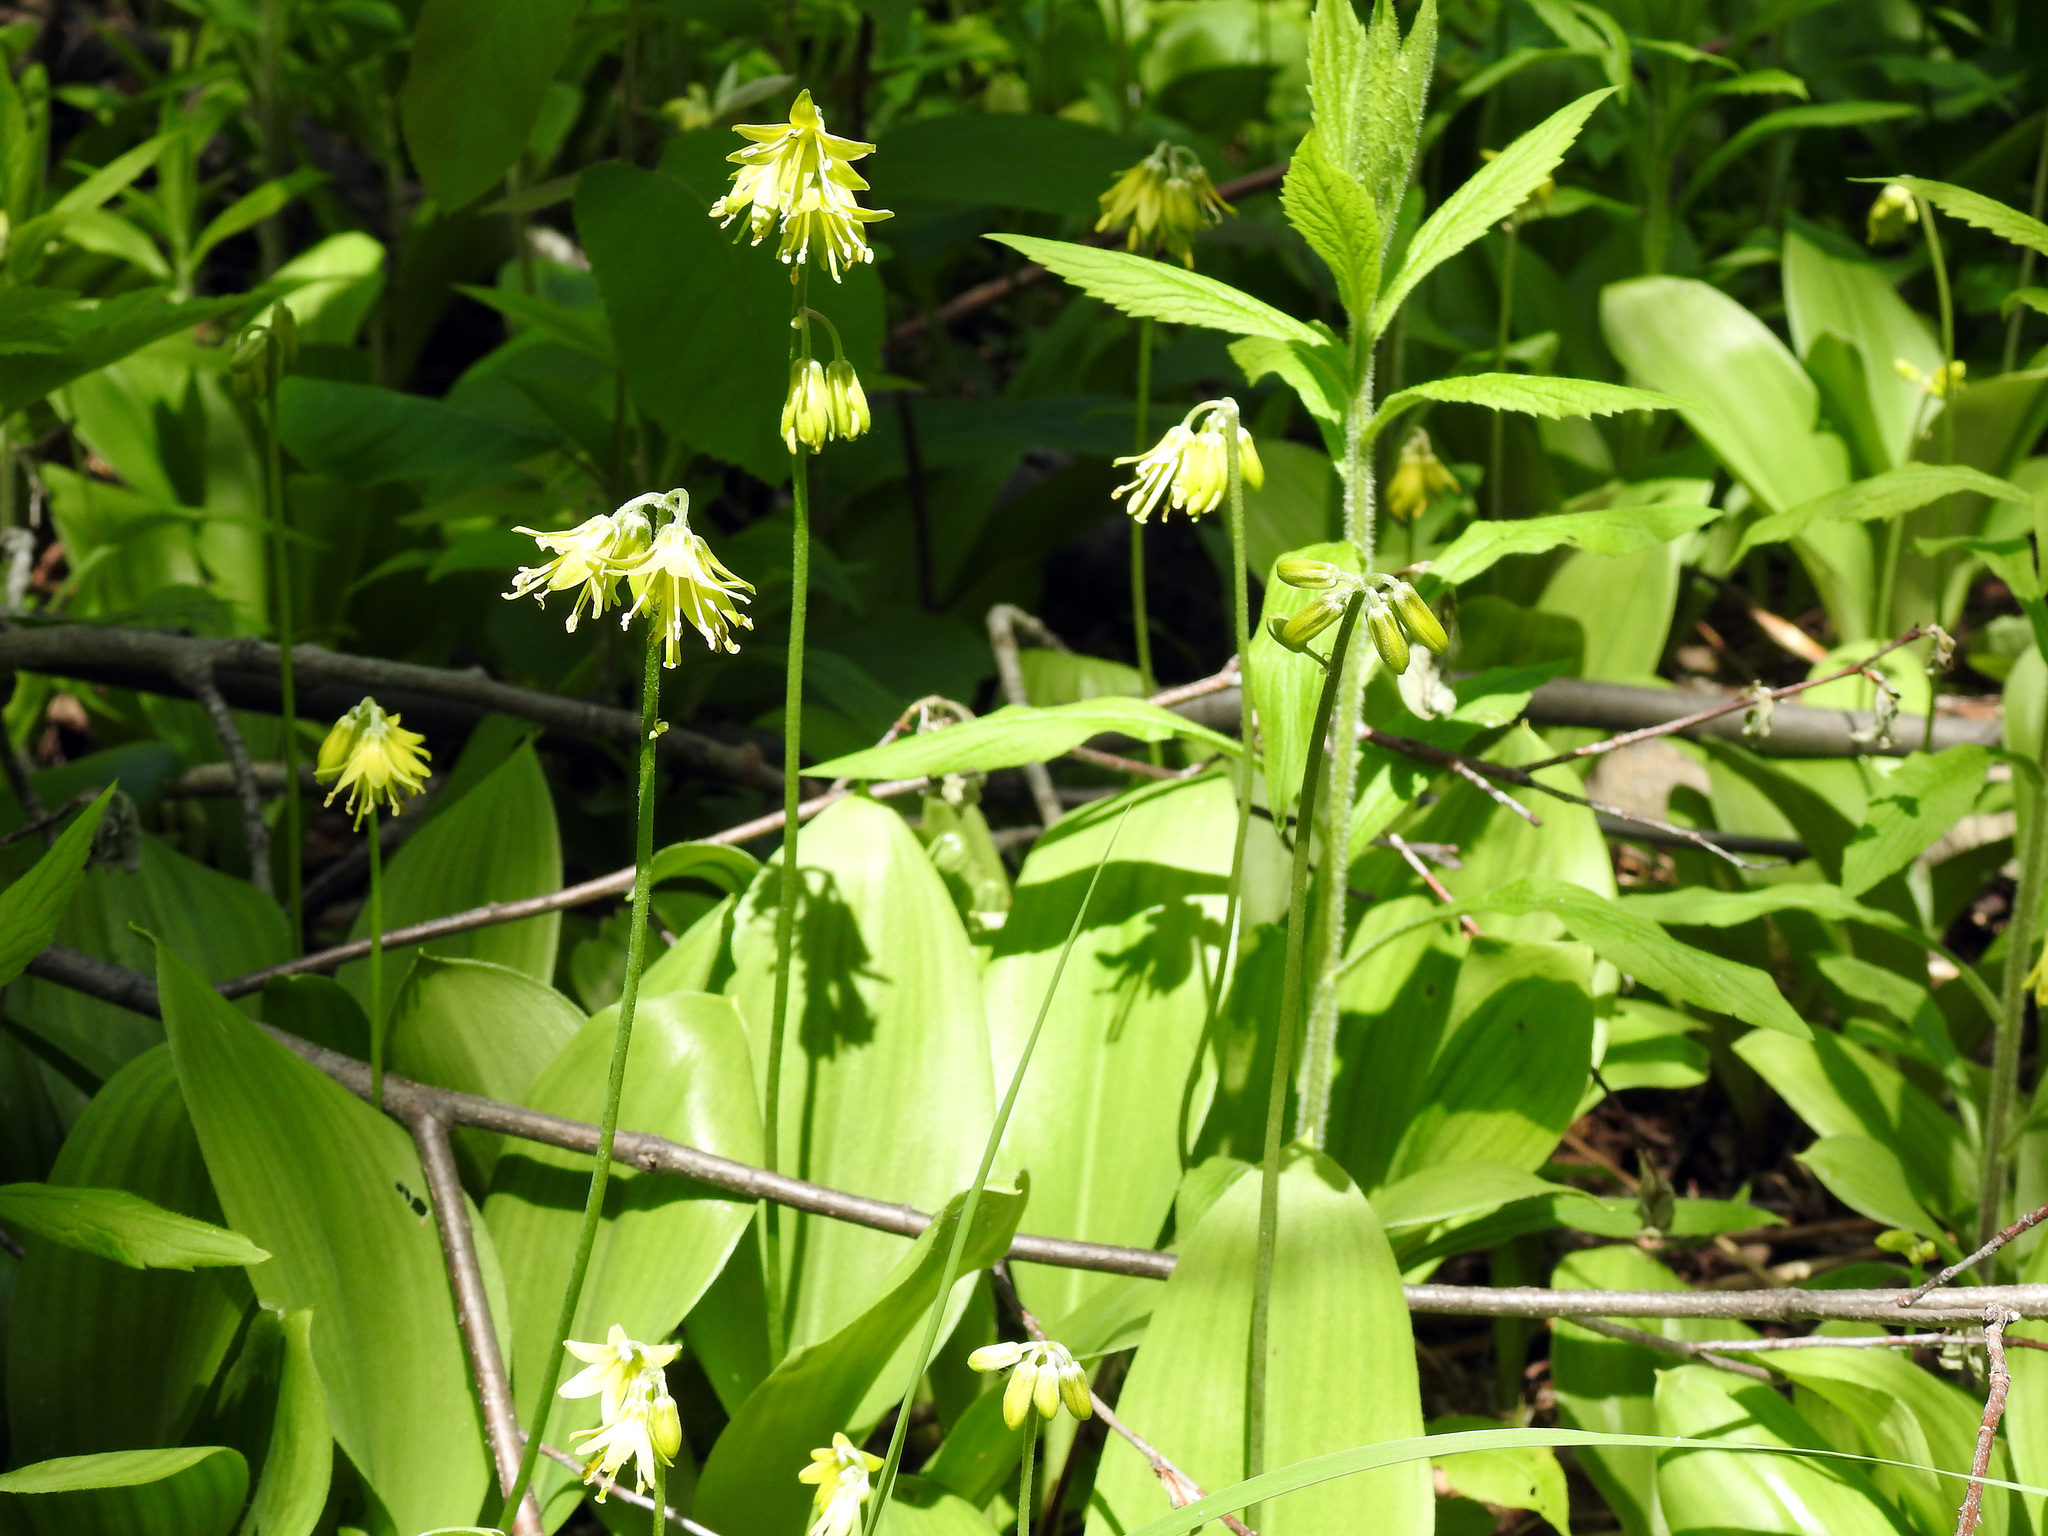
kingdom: Plantae
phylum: Tracheophyta
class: Liliopsida
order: Liliales
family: Liliaceae
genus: Clintonia
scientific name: Clintonia borealis
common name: Yellow clintonia
